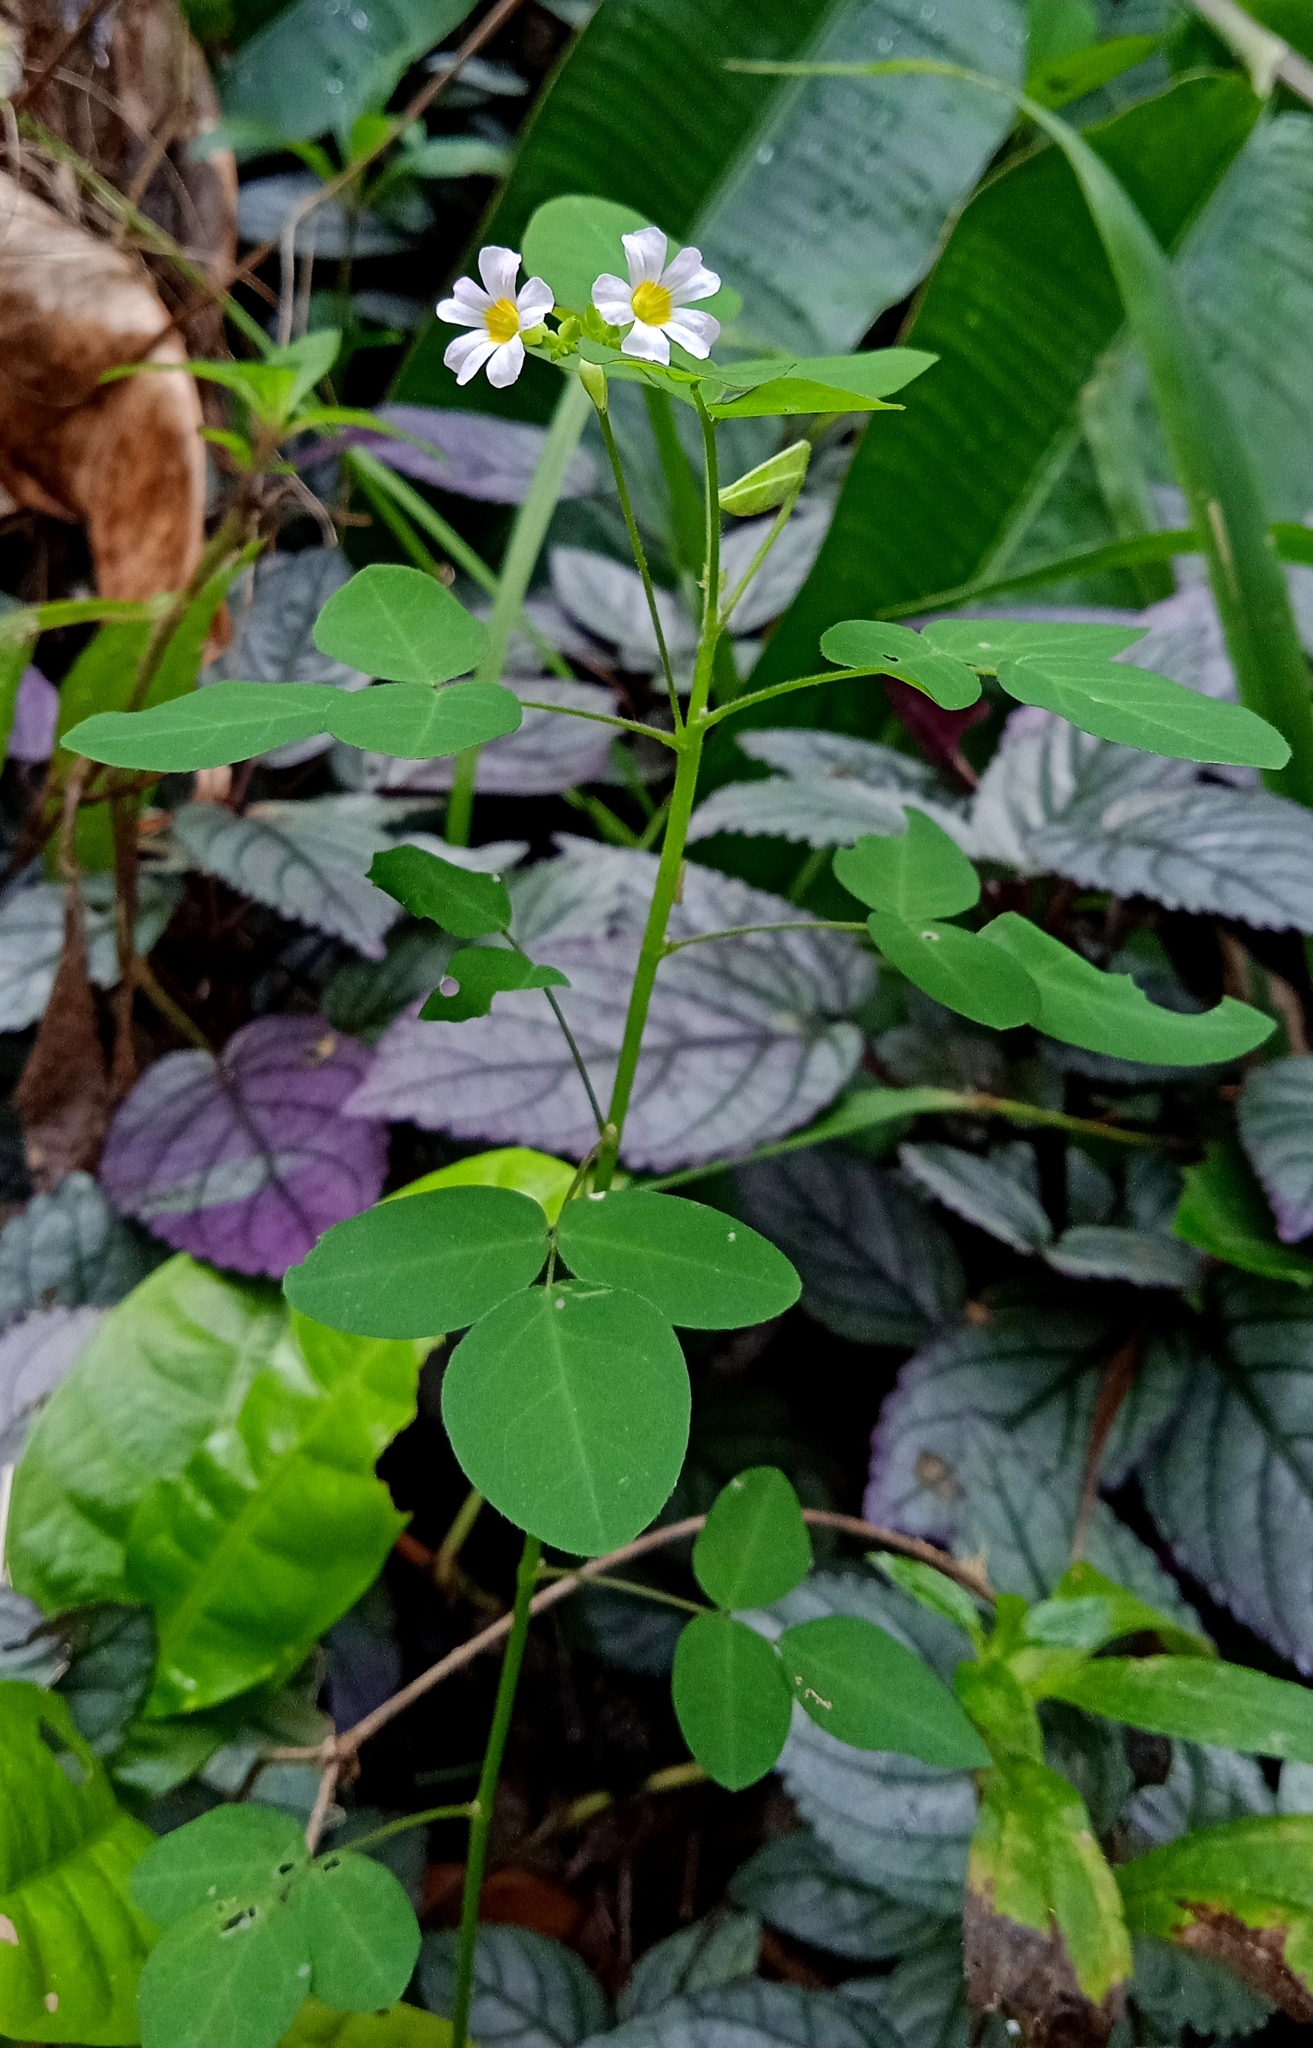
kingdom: Plantae
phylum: Tracheophyta
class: Magnoliopsida
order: Oxalidales
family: Oxalidaceae
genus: Oxalis
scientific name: Oxalis barrelieri
